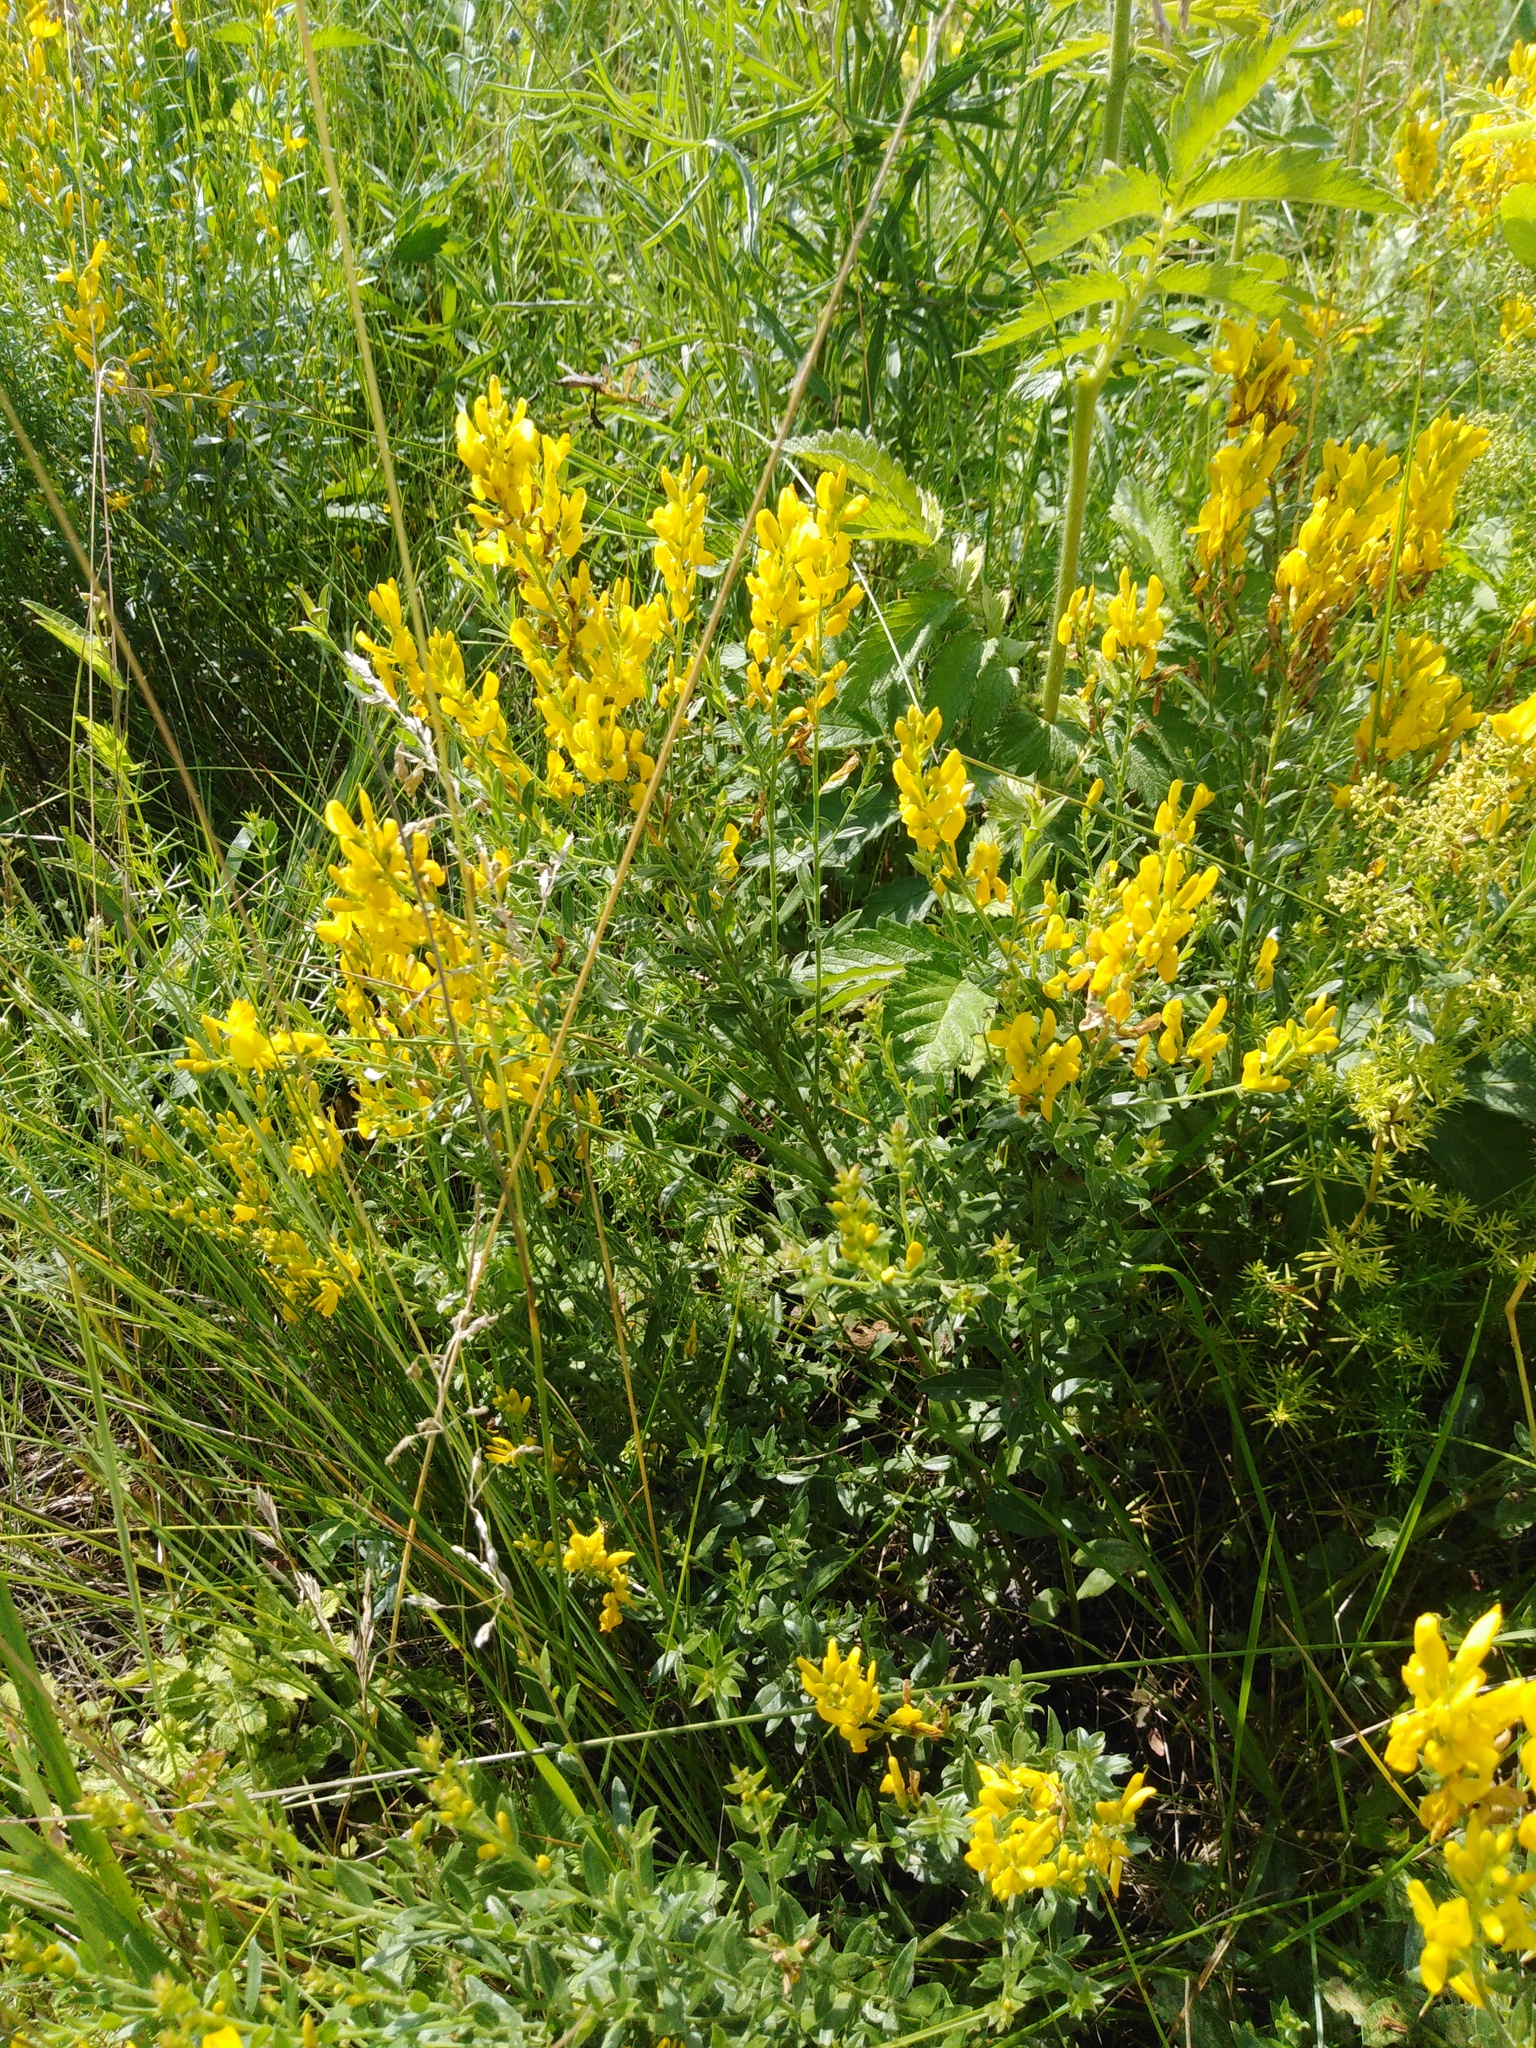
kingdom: Plantae
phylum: Tracheophyta
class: Magnoliopsida
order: Fabales
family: Fabaceae
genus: Genista
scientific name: Genista tinctoria
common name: Dyer's greenweed
